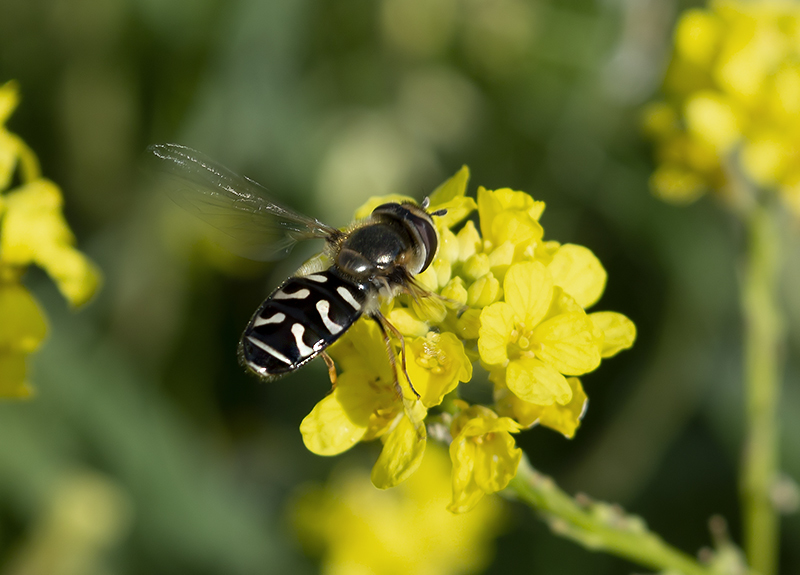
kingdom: Animalia
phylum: Arthropoda
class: Insecta
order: Diptera
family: Syrphidae
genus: Scaeva
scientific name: Scaeva pyrastri
